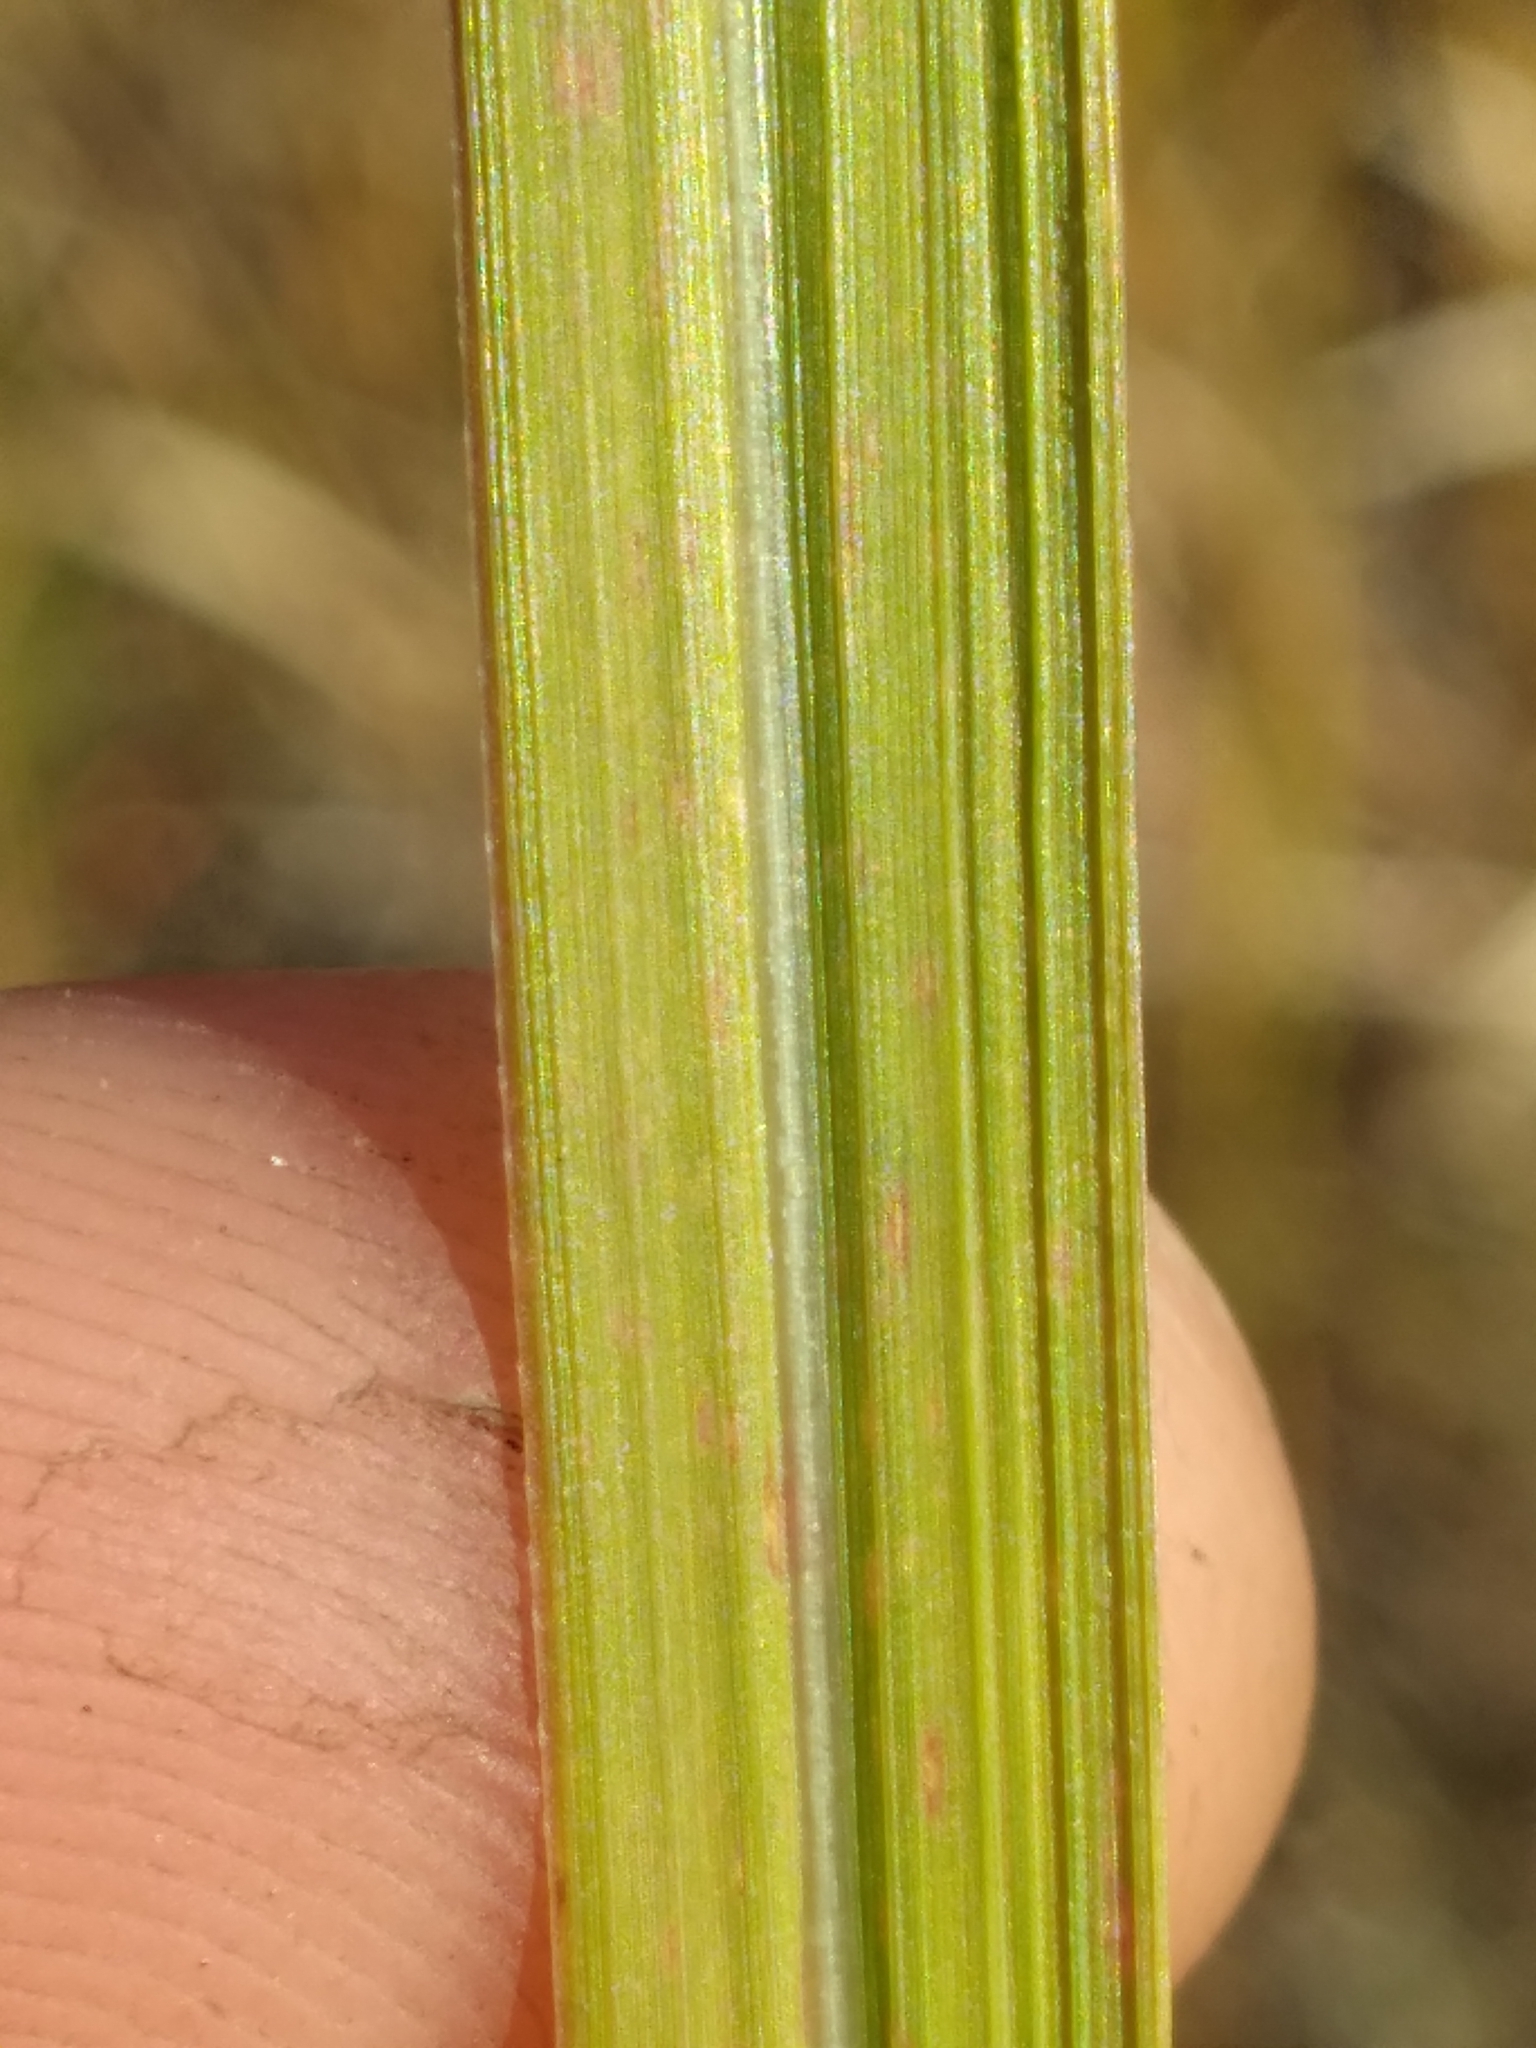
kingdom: Plantae
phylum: Tracheophyta
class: Liliopsida
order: Poales
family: Poaceae
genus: Imperata
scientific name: Imperata cylindrica
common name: Cogongrass
